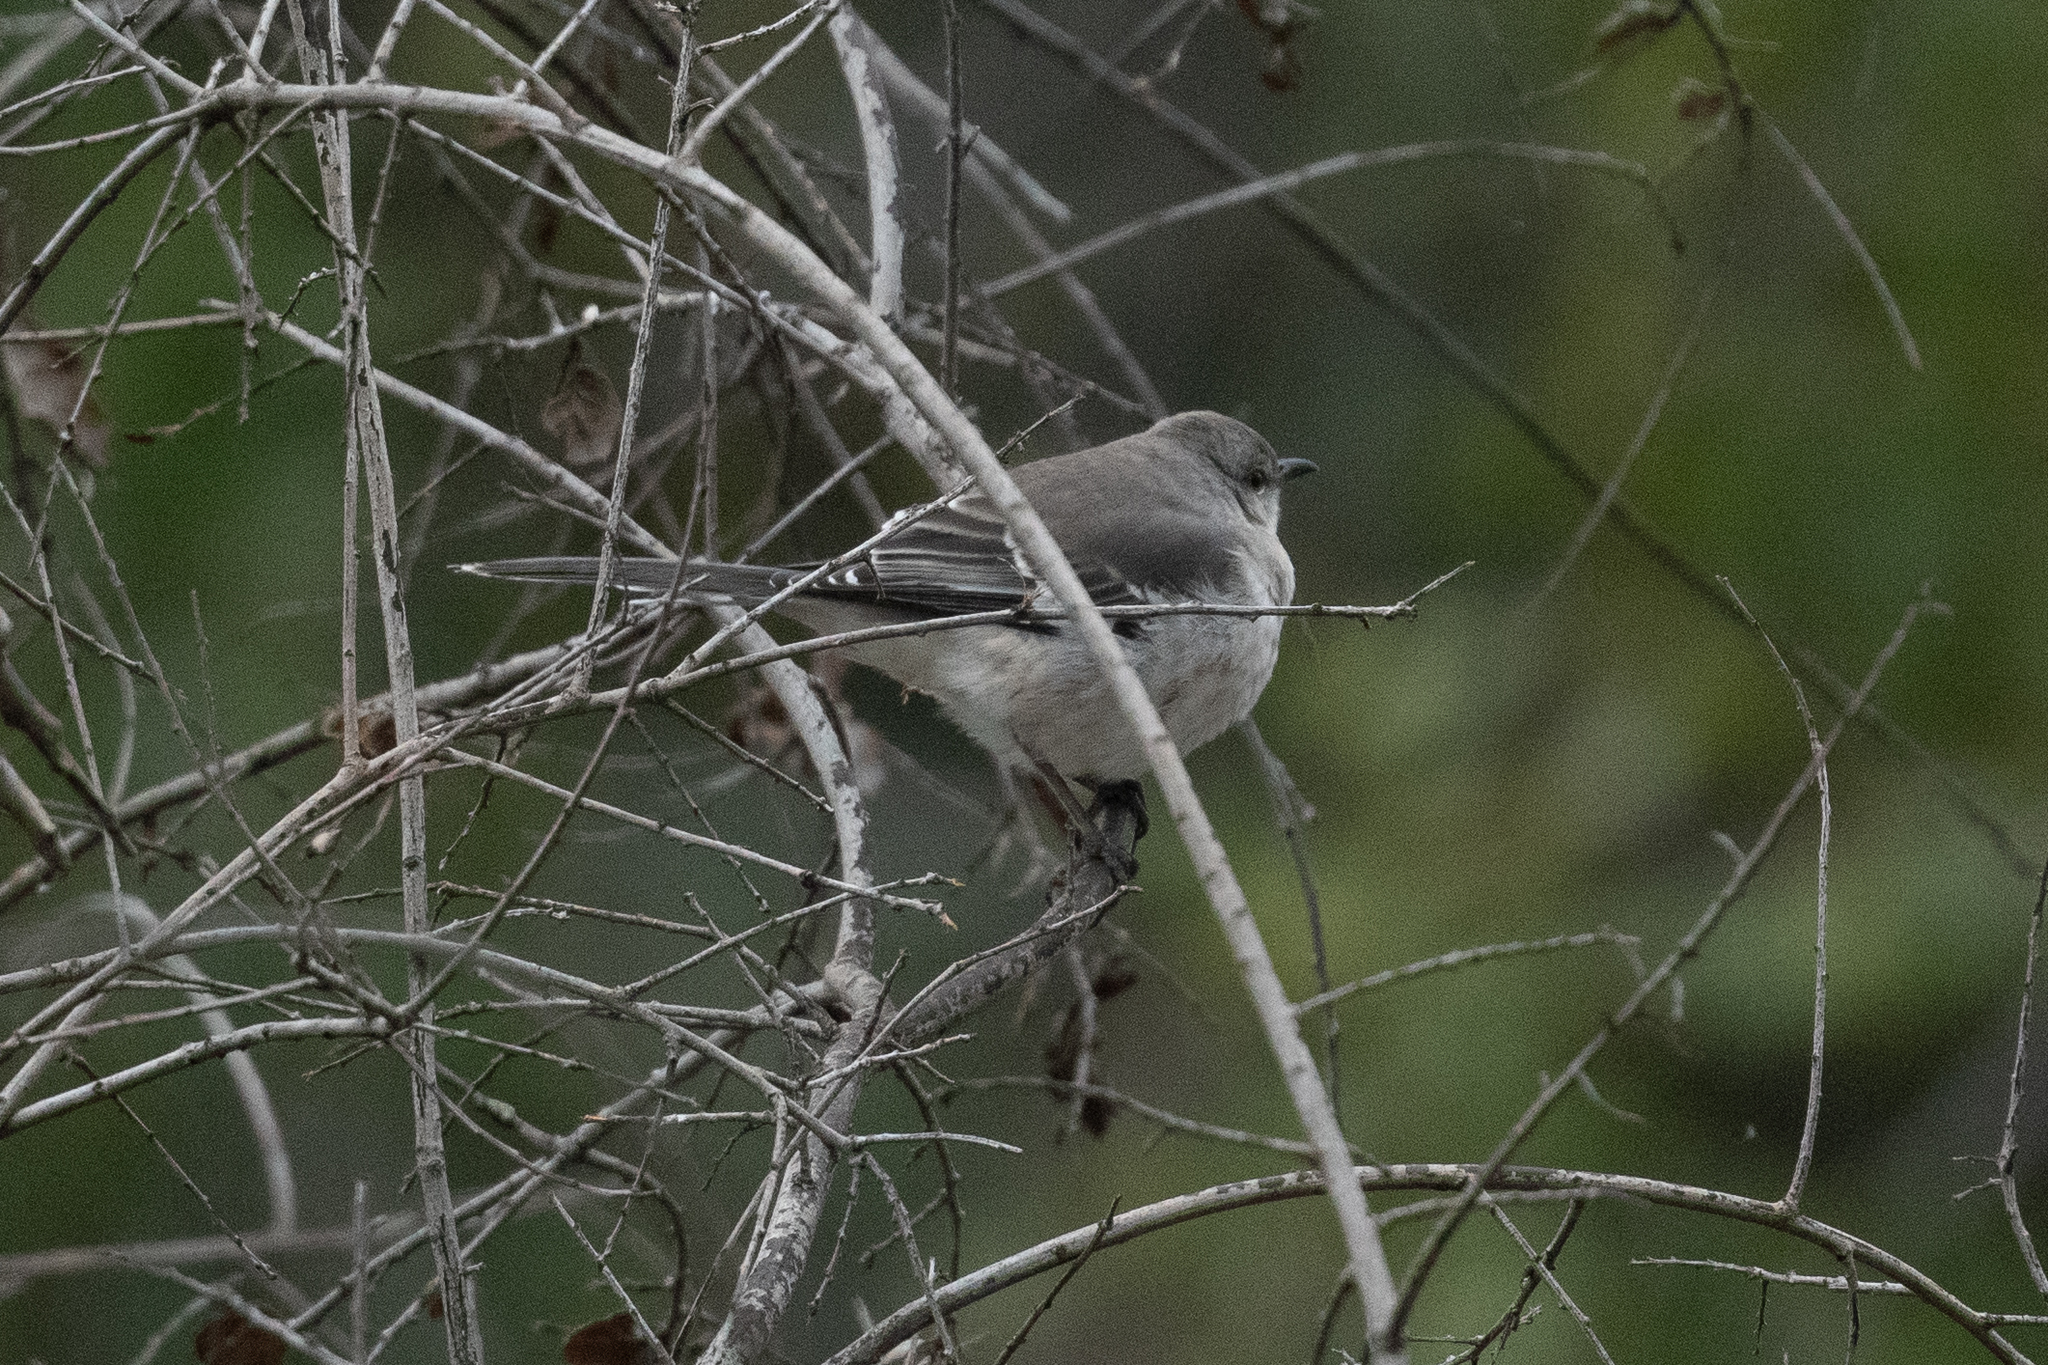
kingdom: Animalia
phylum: Chordata
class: Aves
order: Passeriformes
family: Mimidae
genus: Mimus
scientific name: Mimus polyglottos
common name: Northern mockingbird
